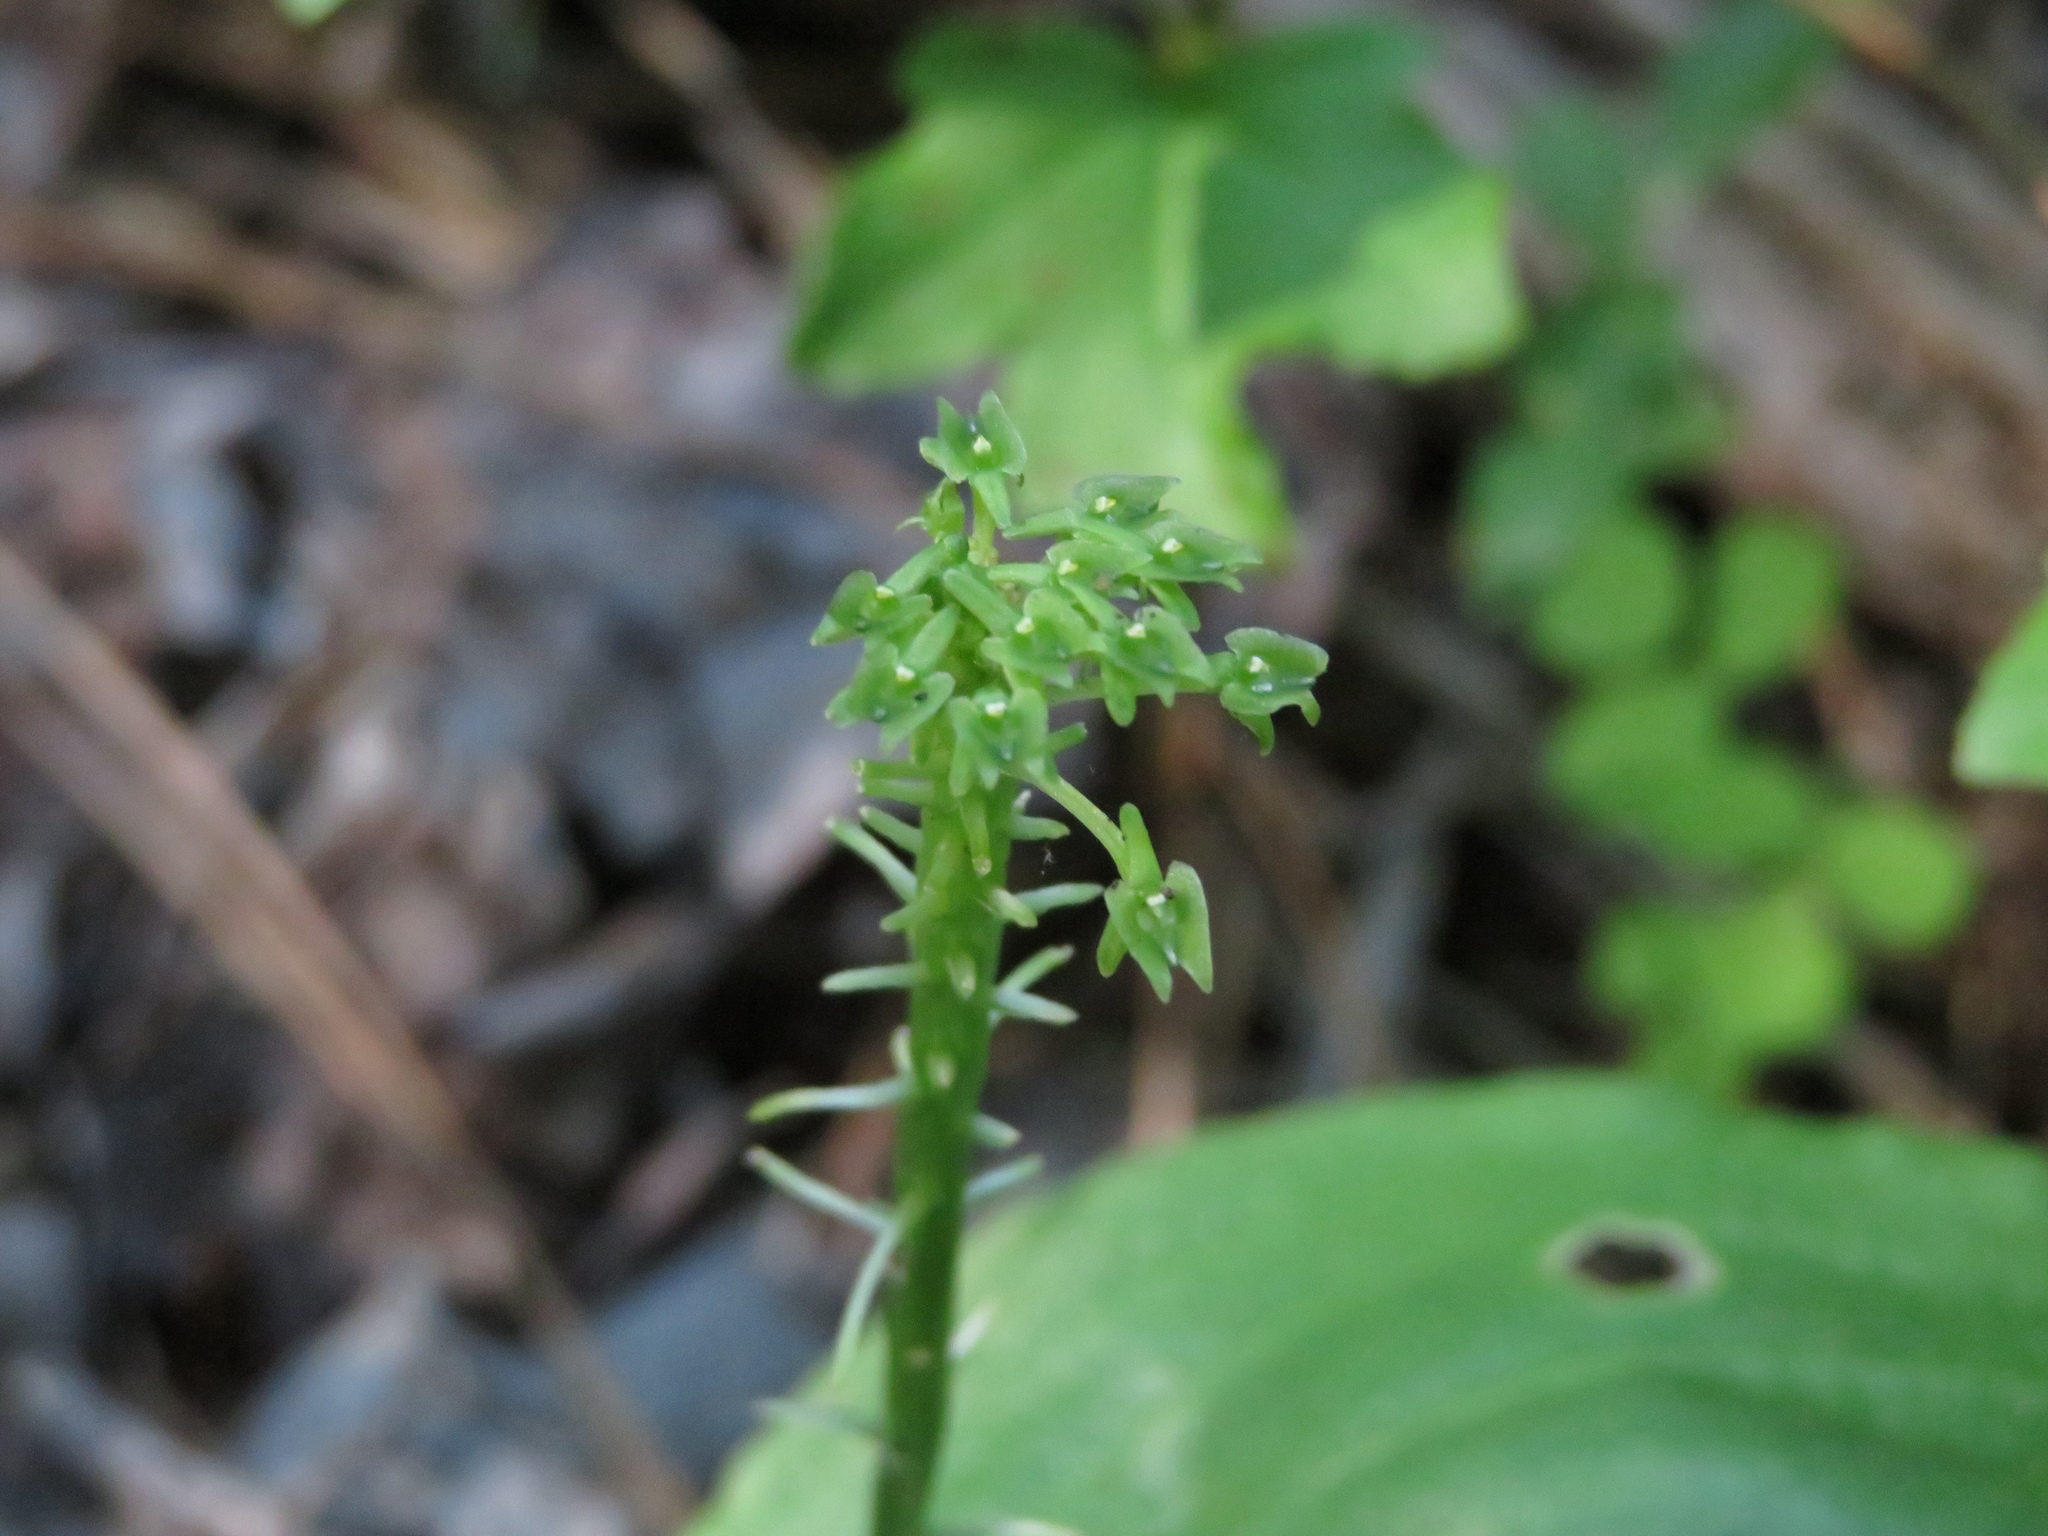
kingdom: Plantae
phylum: Tracheophyta
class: Liliopsida
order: Asparagales
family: Orchidaceae
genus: Malaxis
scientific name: Malaxis unifolia
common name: Green adder's-mouth
